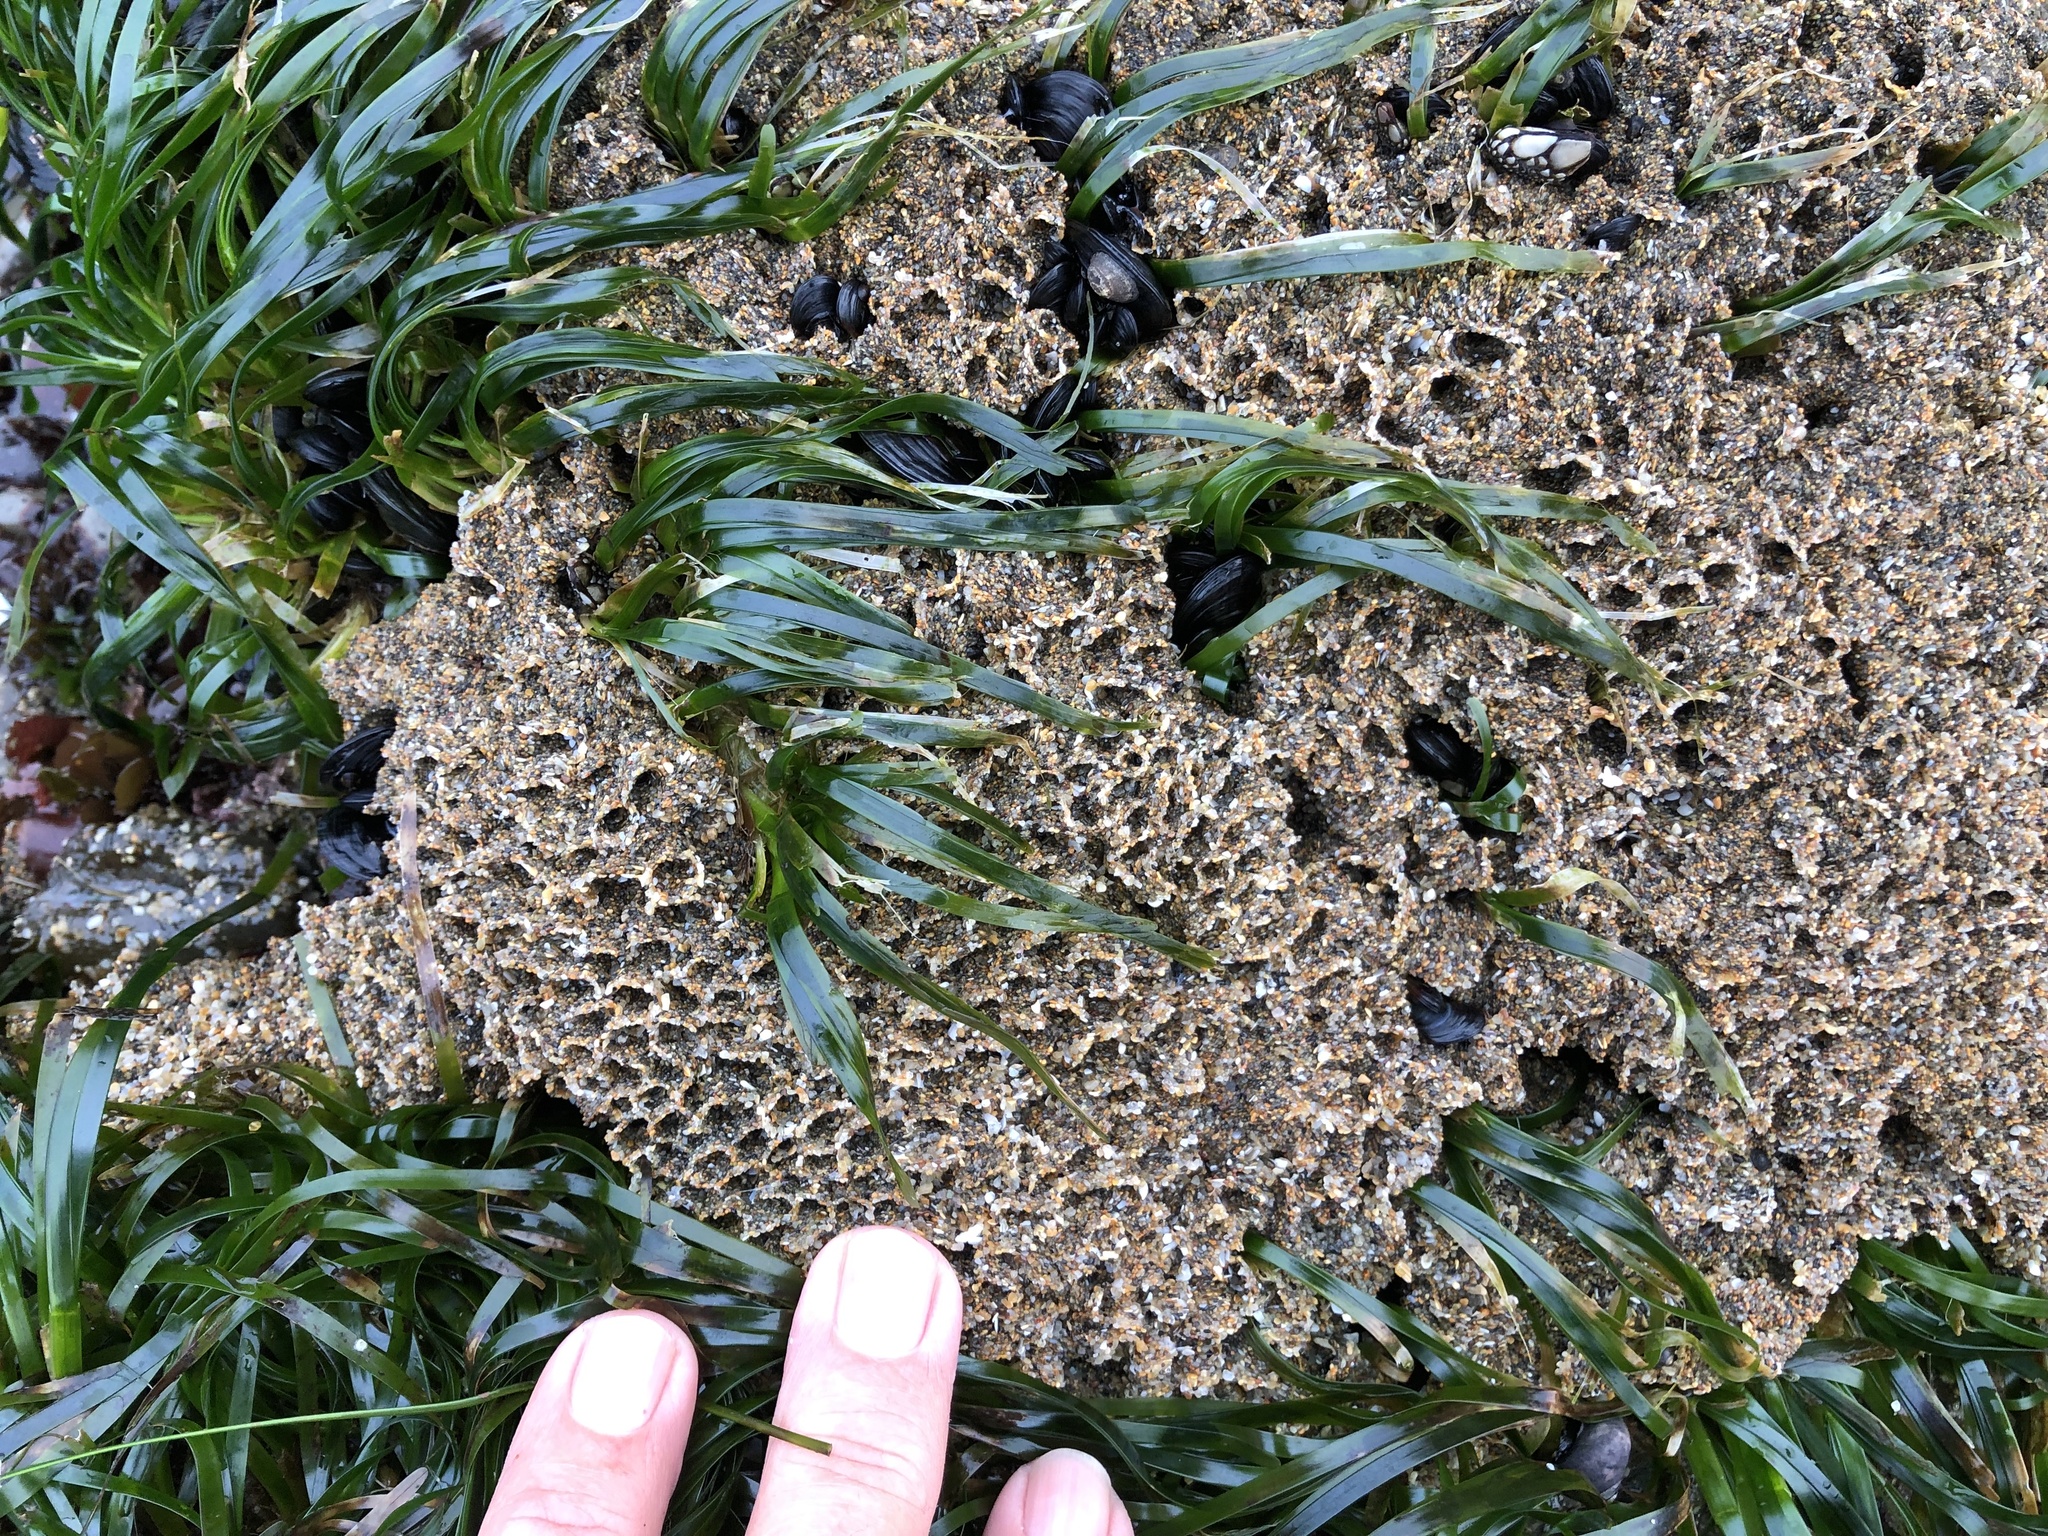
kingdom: Animalia
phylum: Annelida
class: Polychaeta
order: Sabellida
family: Sabellariidae
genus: Phragmatopoma
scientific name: Phragmatopoma californica
